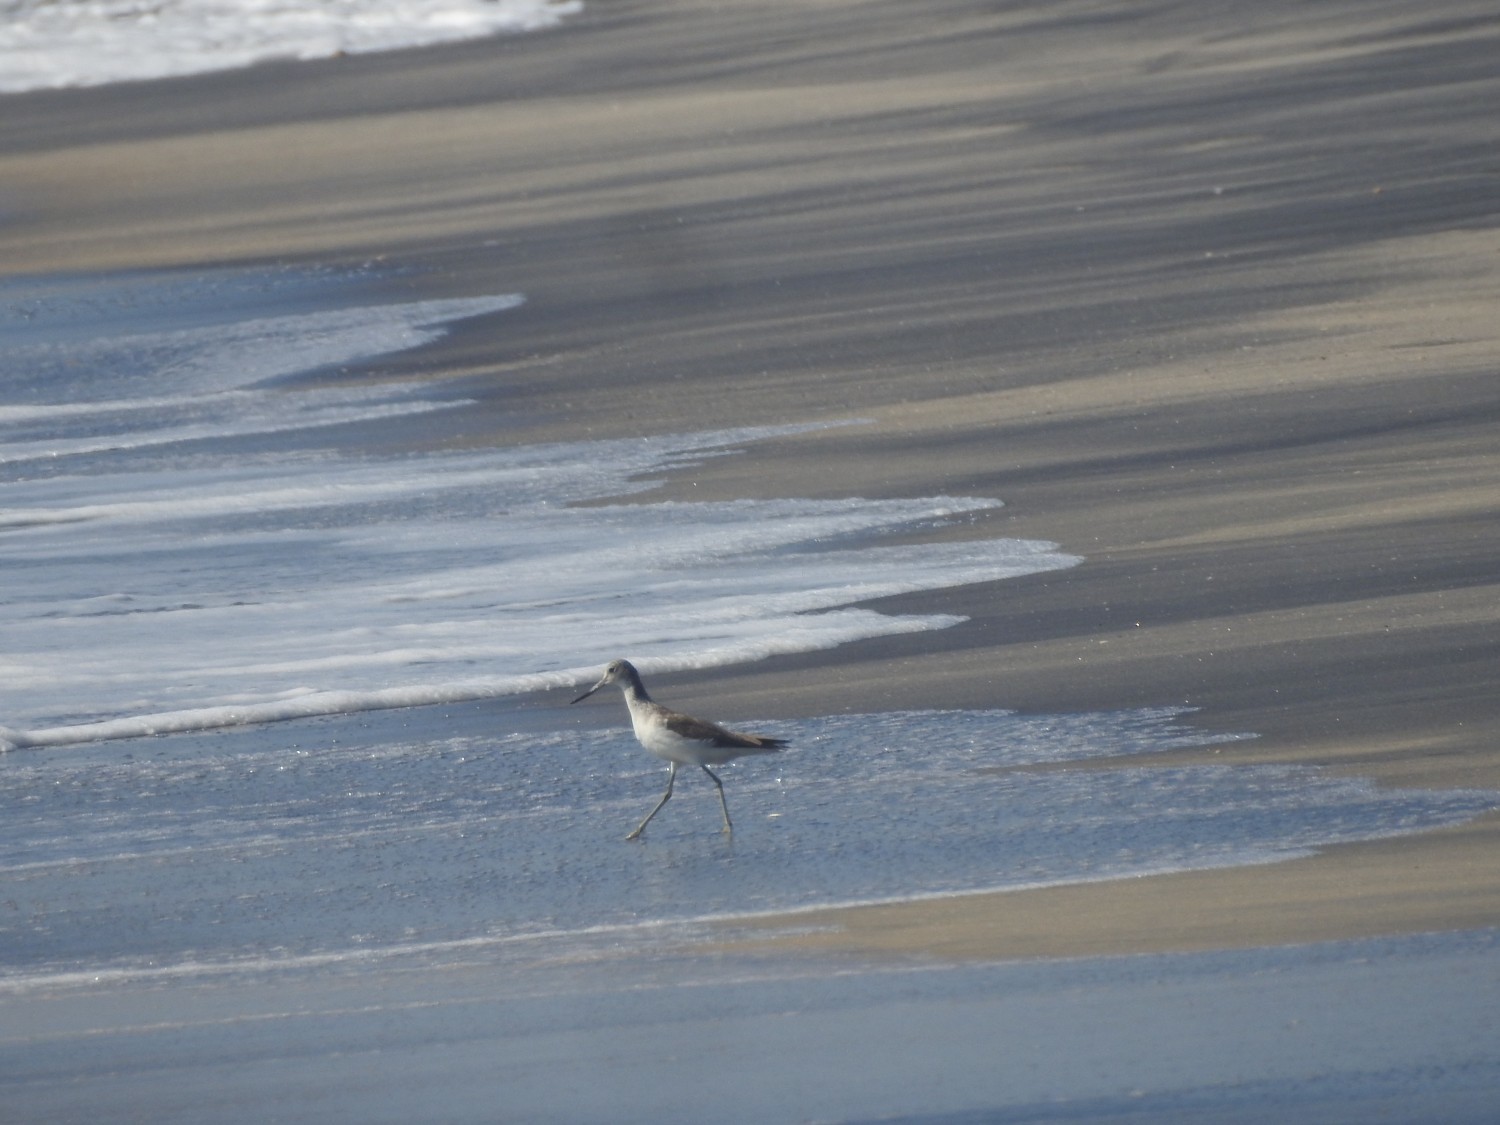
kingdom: Animalia
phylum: Chordata
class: Aves
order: Charadriiformes
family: Scolopacidae
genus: Tringa
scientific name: Tringa nebularia
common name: Common greenshank
